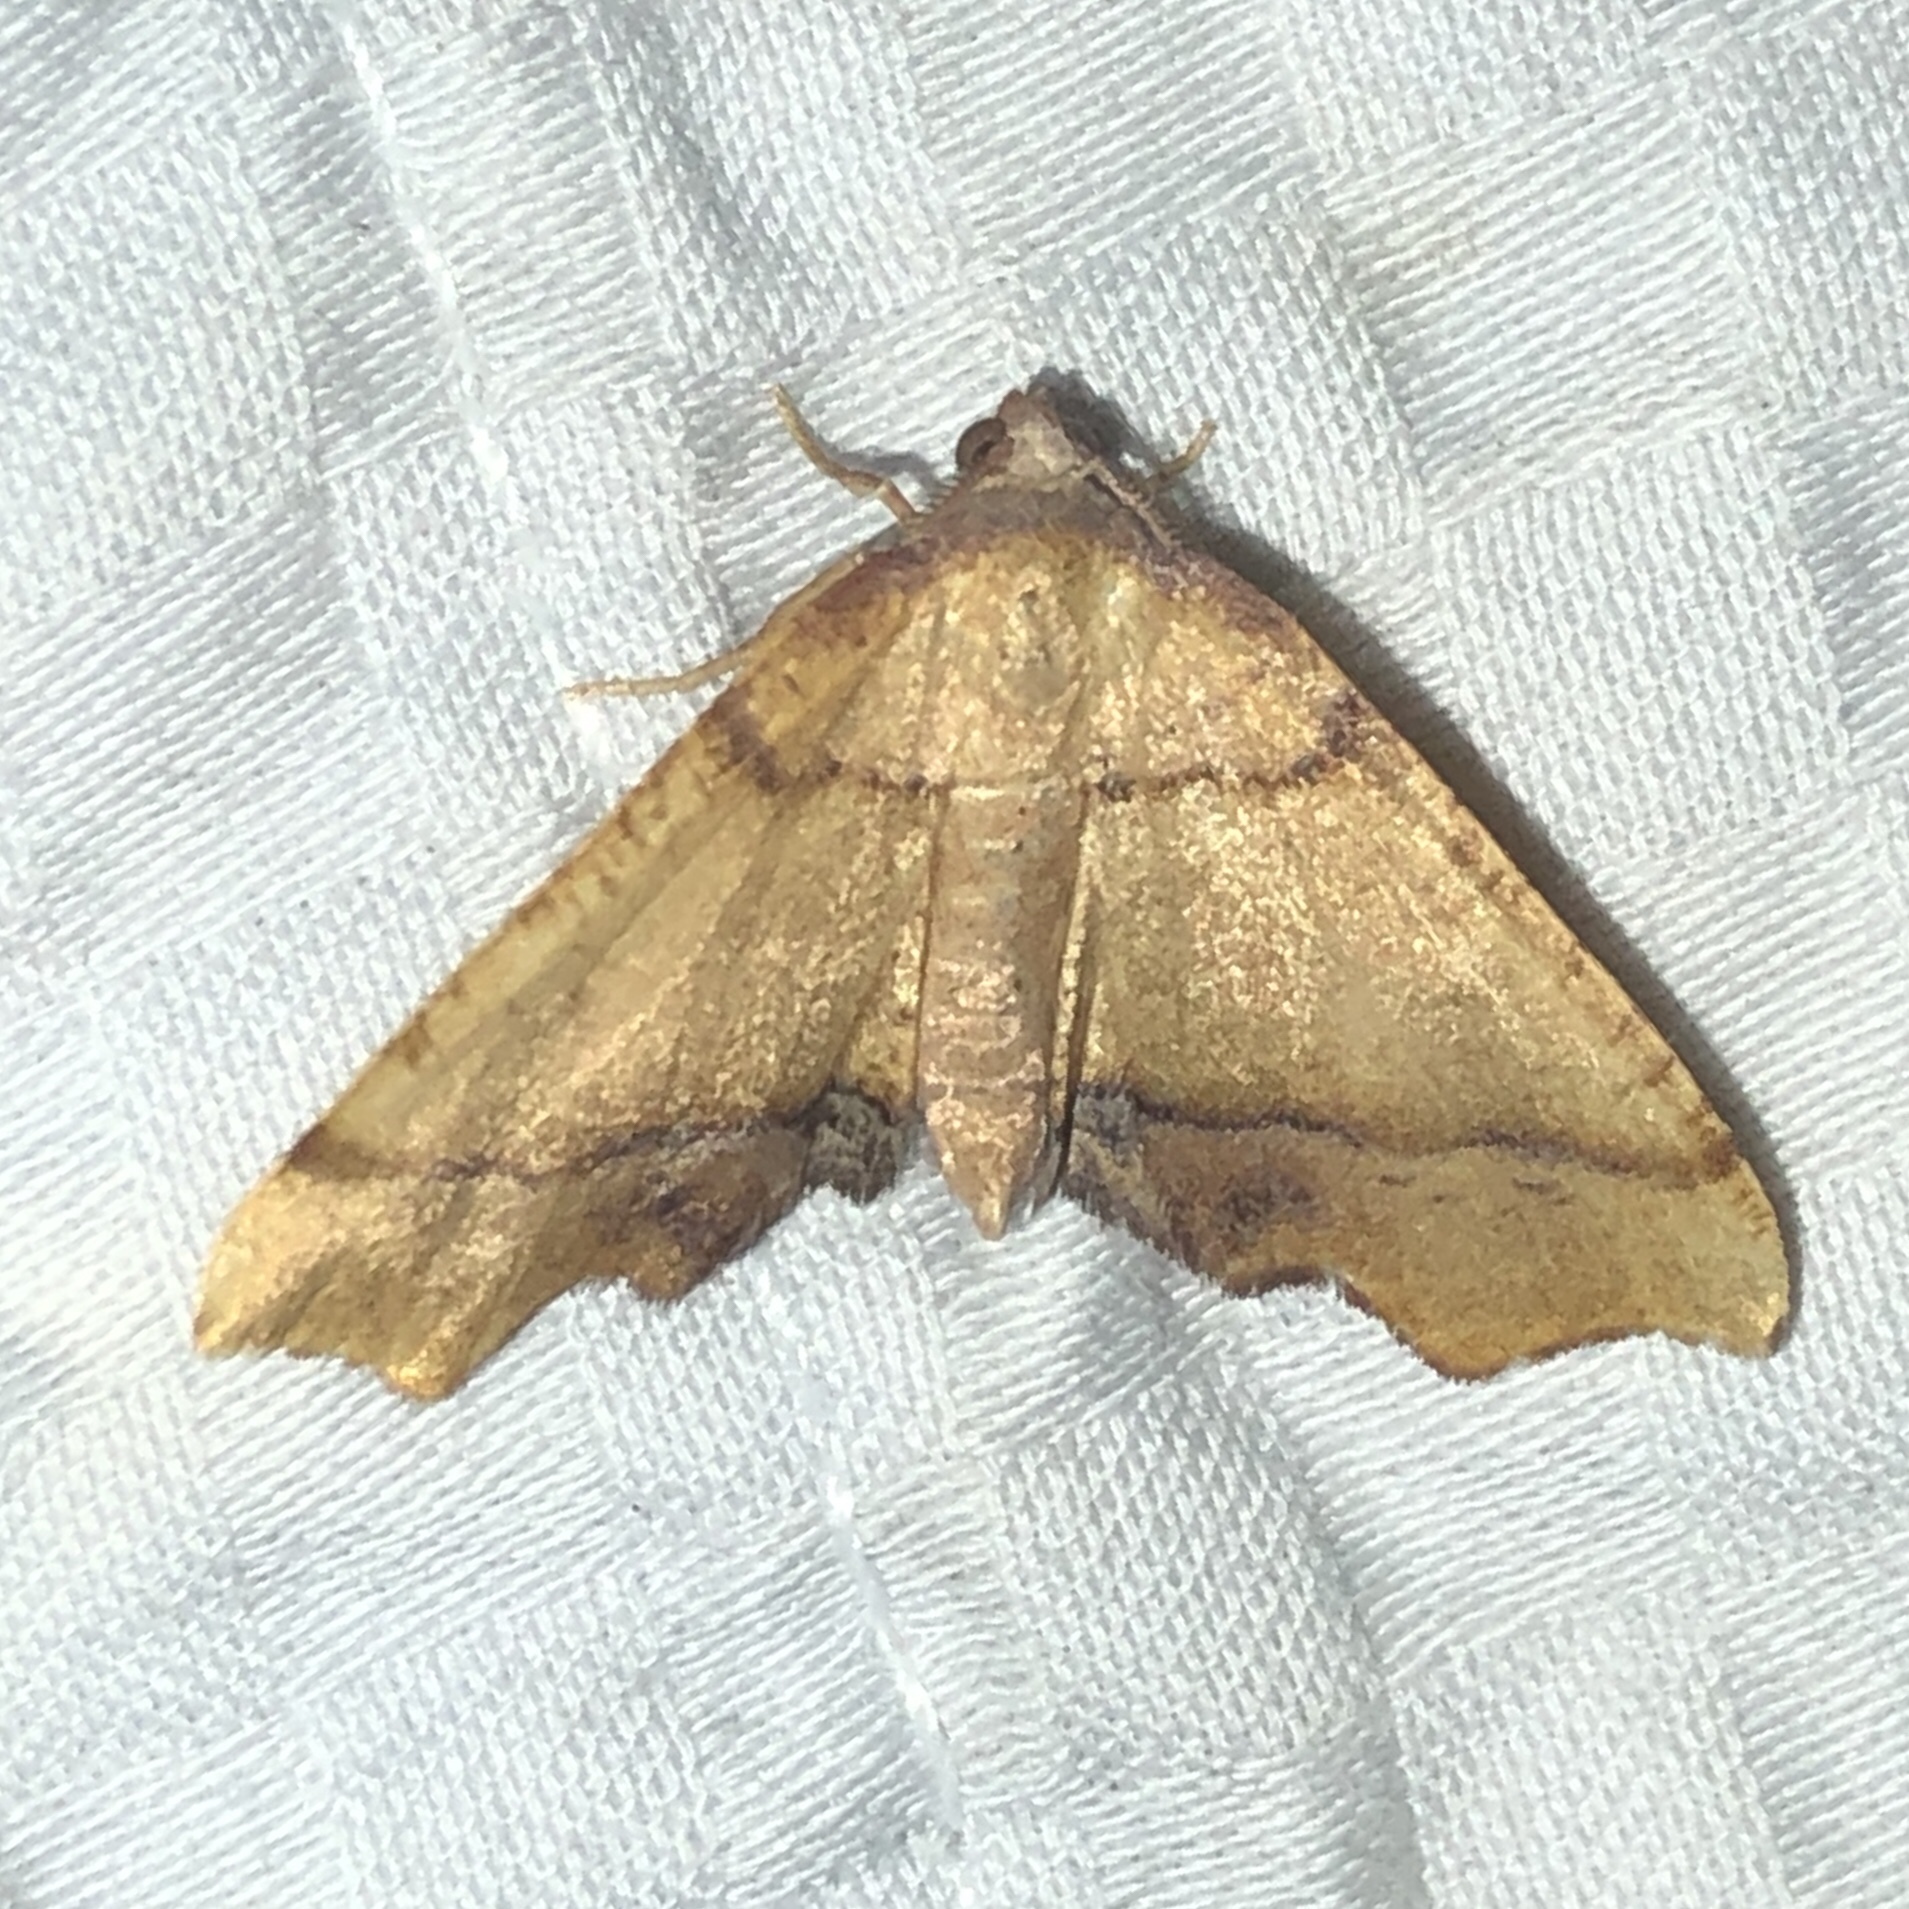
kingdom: Animalia
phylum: Arthropoda
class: Insecta
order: Lepidoptera
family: Geometridae
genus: Plagodis
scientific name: Plagodis phlogosaria
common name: Straight-lined plagodis
